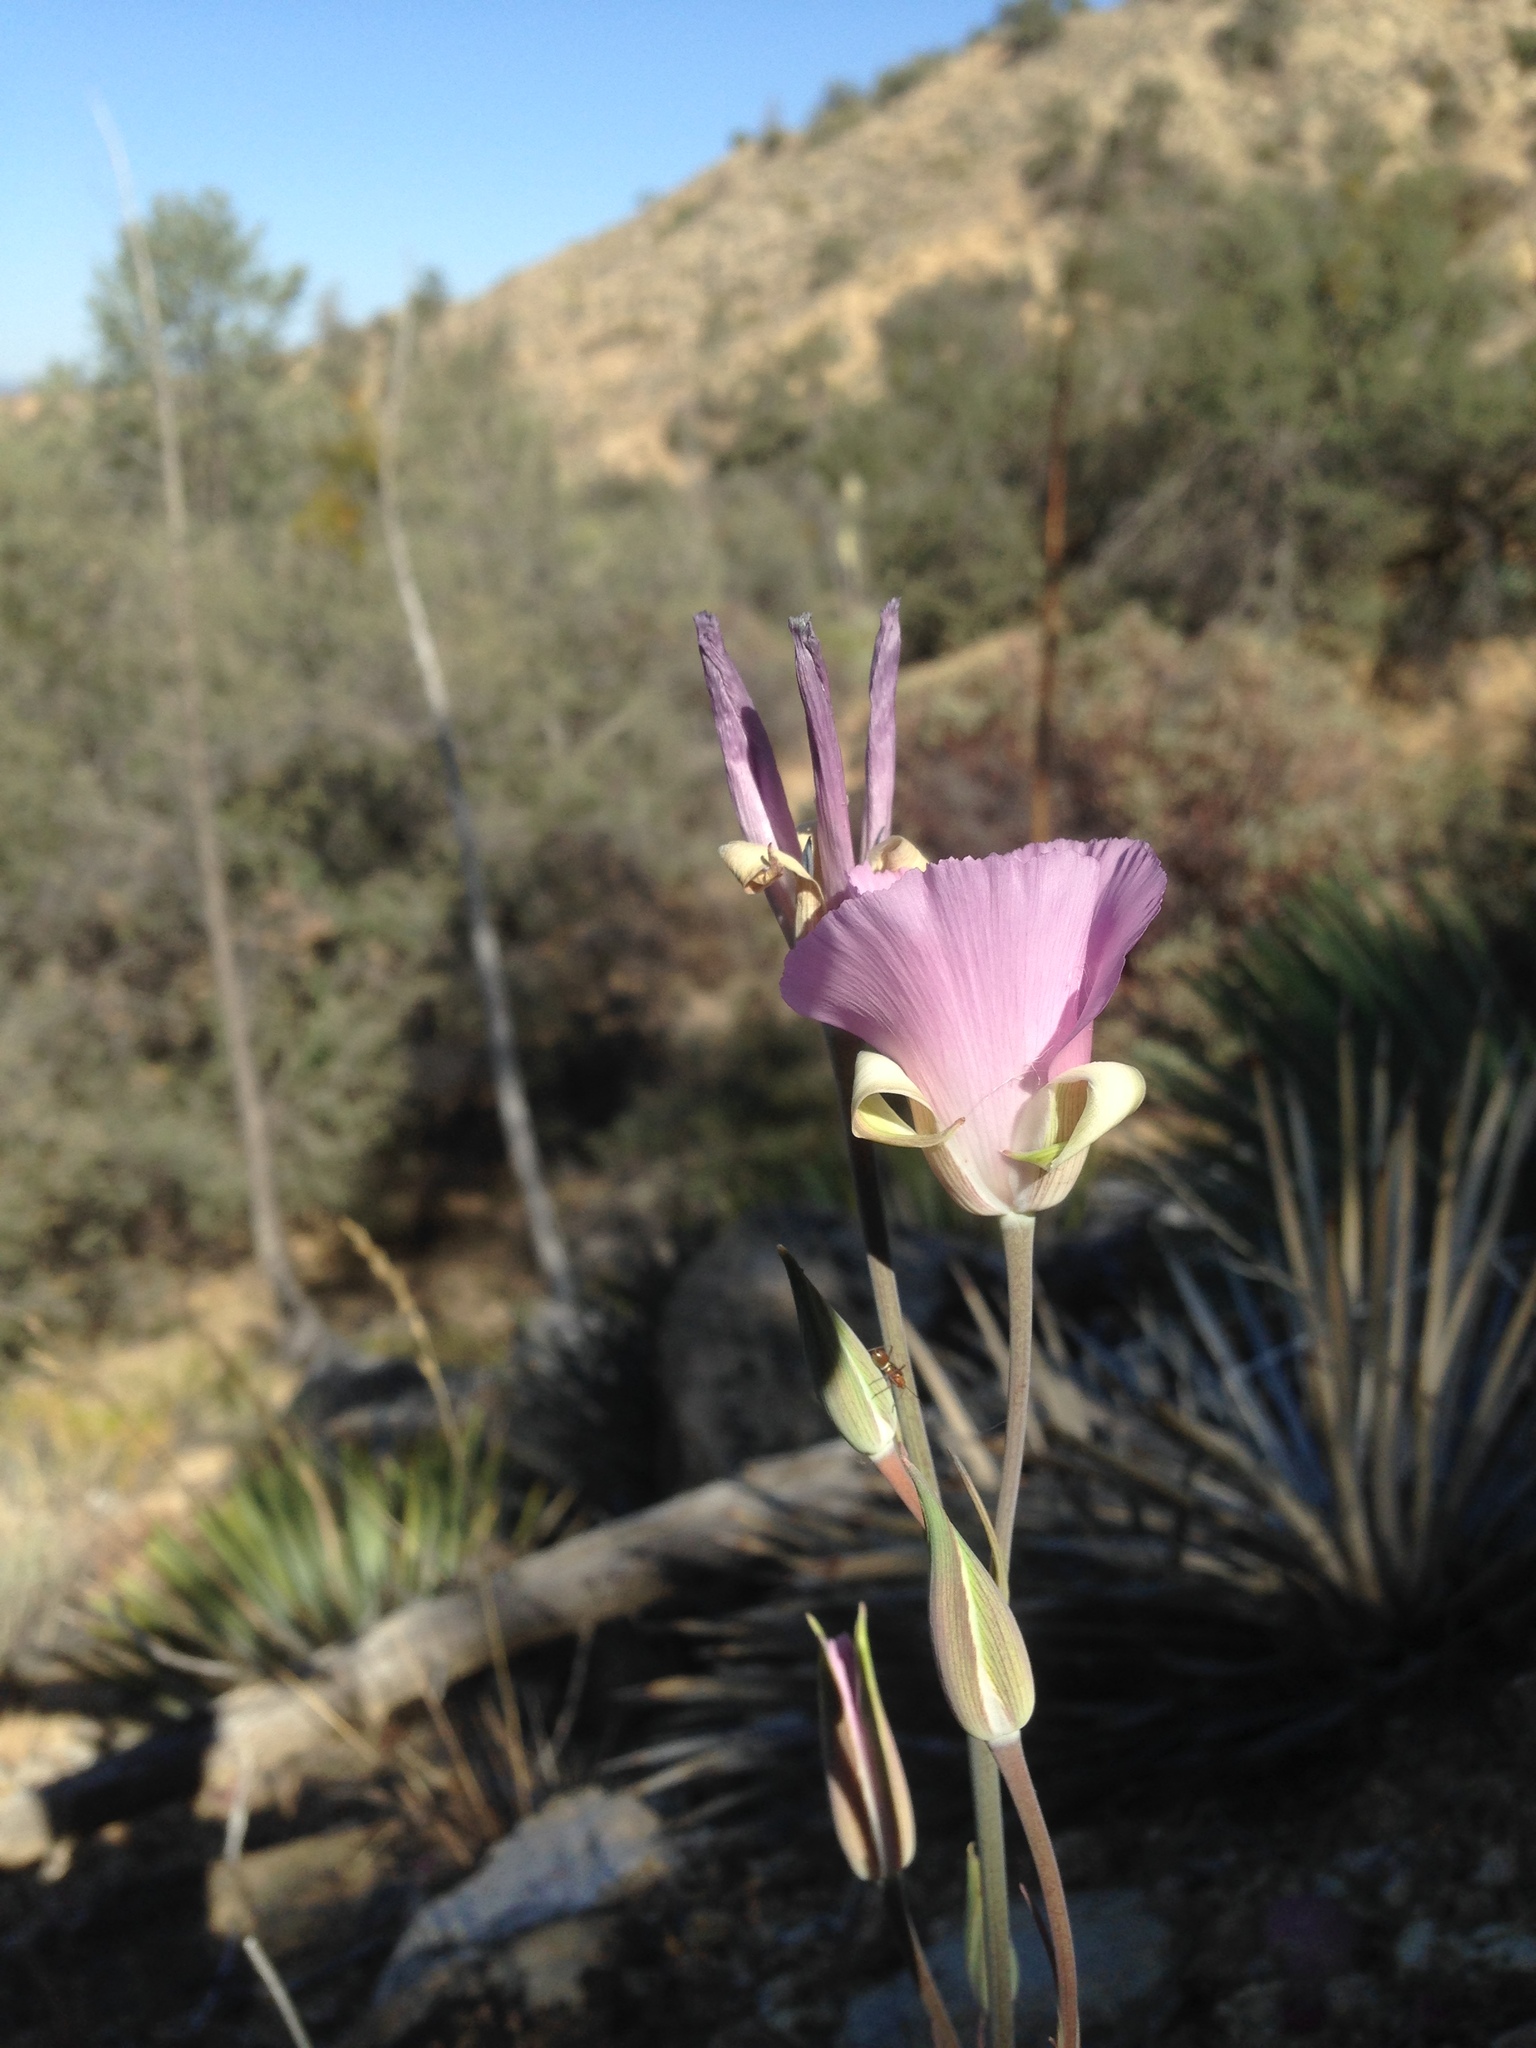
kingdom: Plantae
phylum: Tracheophyta
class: Liliopsida
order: Liliales
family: Liliaceae
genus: Calochortus
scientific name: Calochortus splendens
